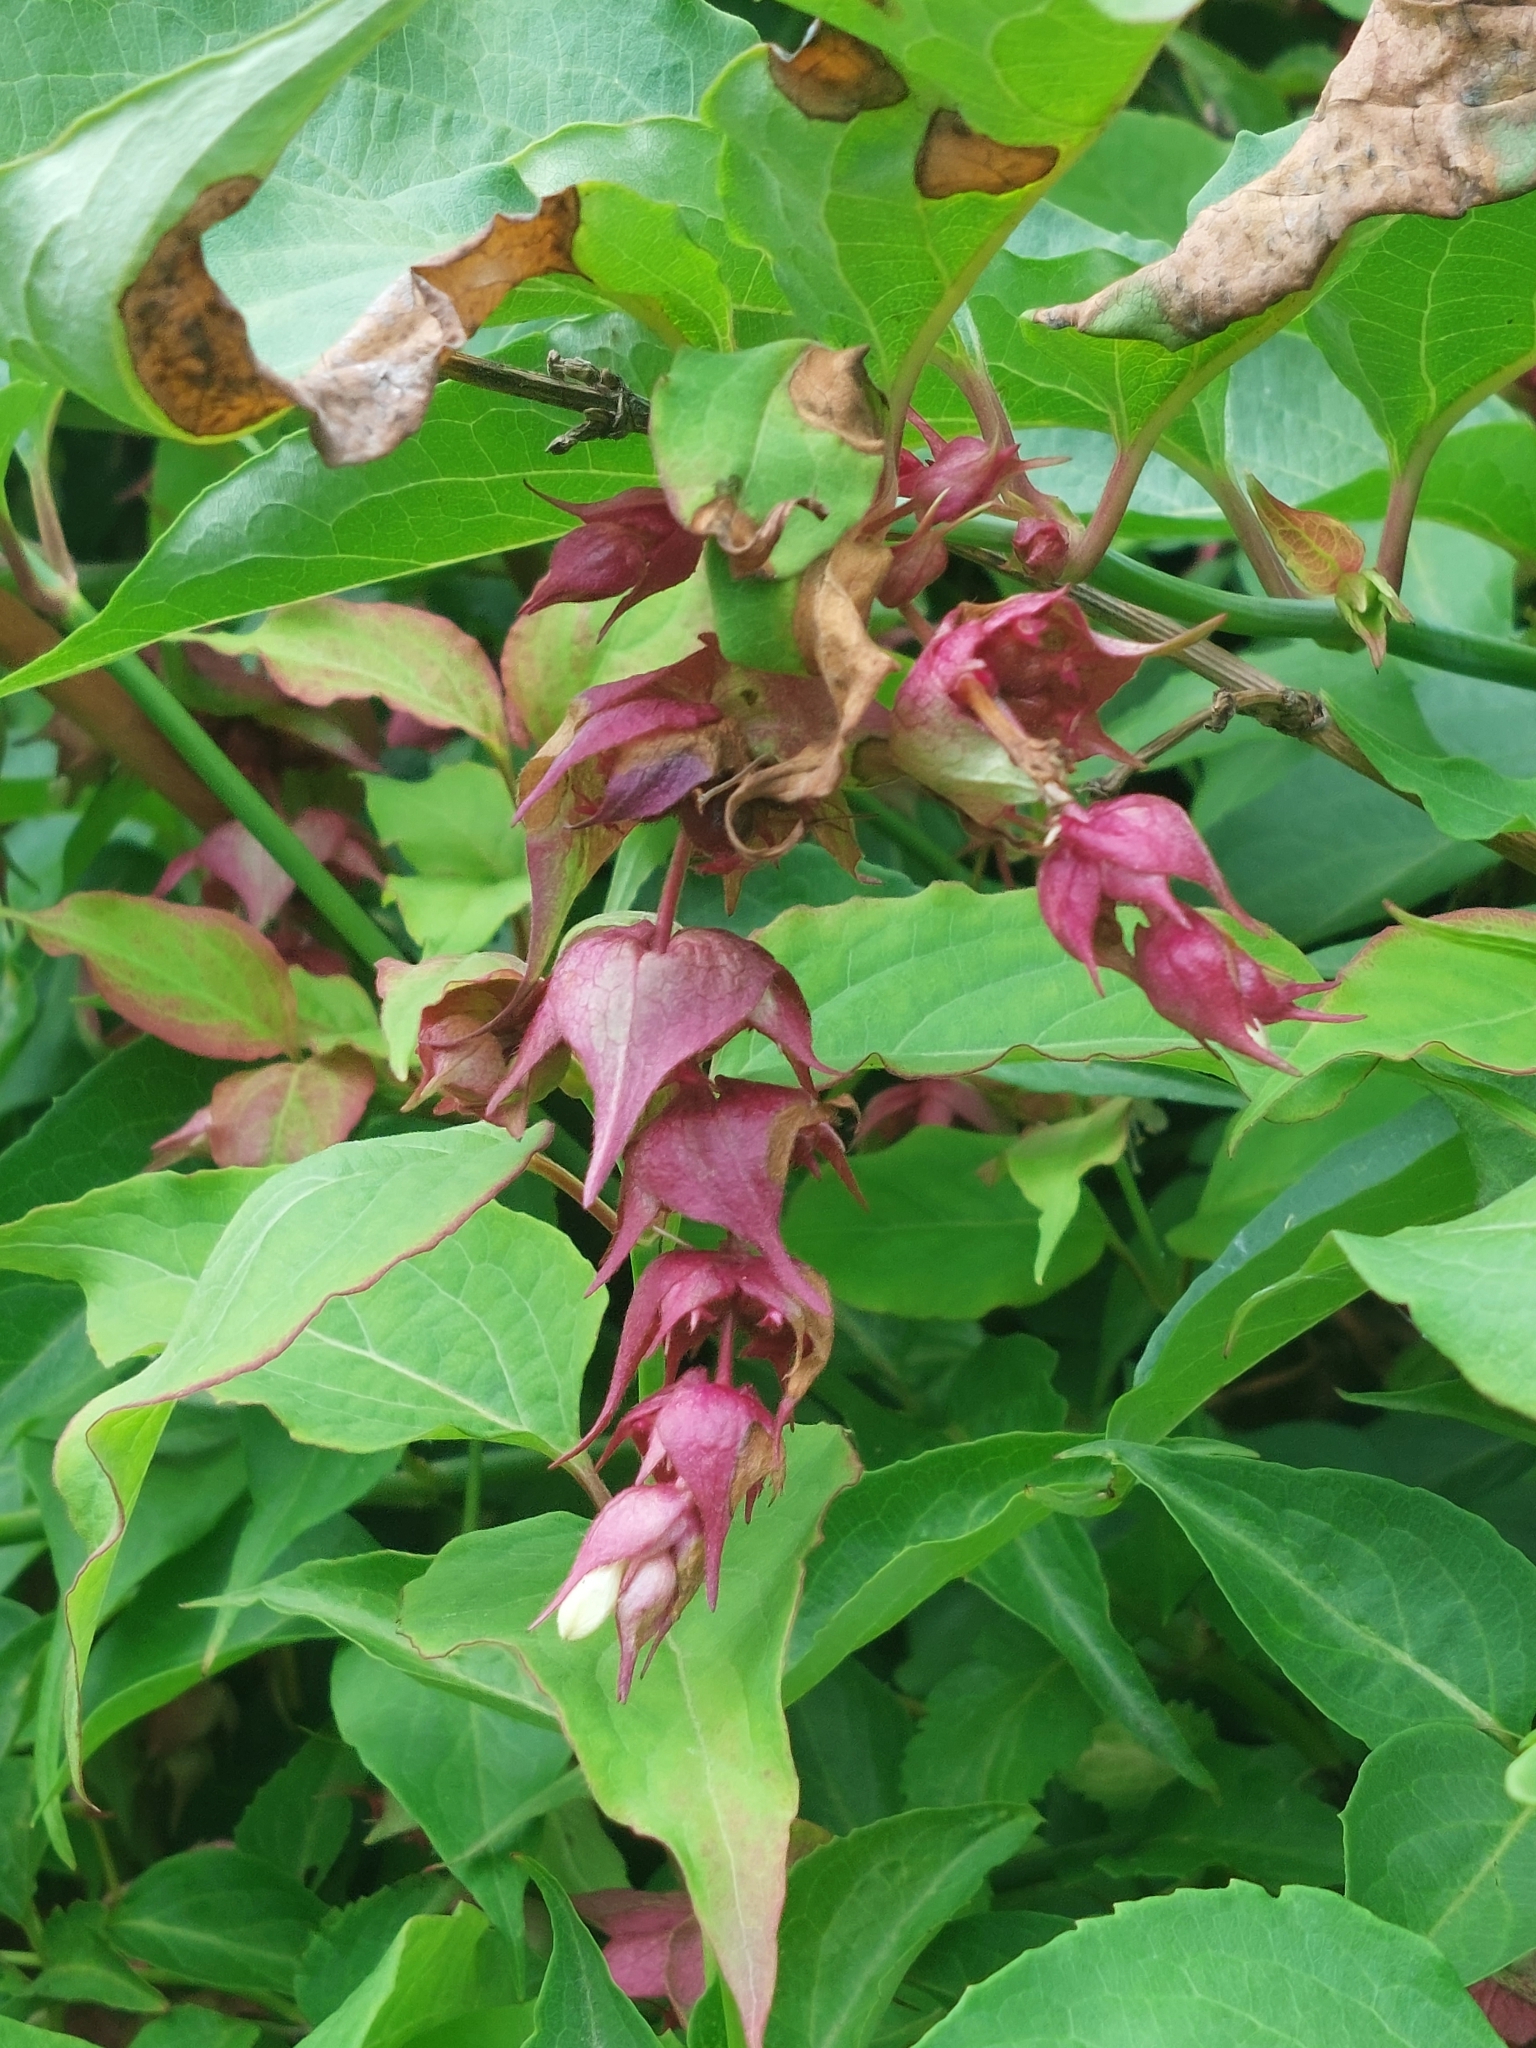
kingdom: Plantae
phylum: Tracheophyta
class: Magnoliopsida
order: Dipsacales
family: Caprifoliaceae
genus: Leycesteria
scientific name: Leycesteria formosa
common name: Himalayan honeysuckle
